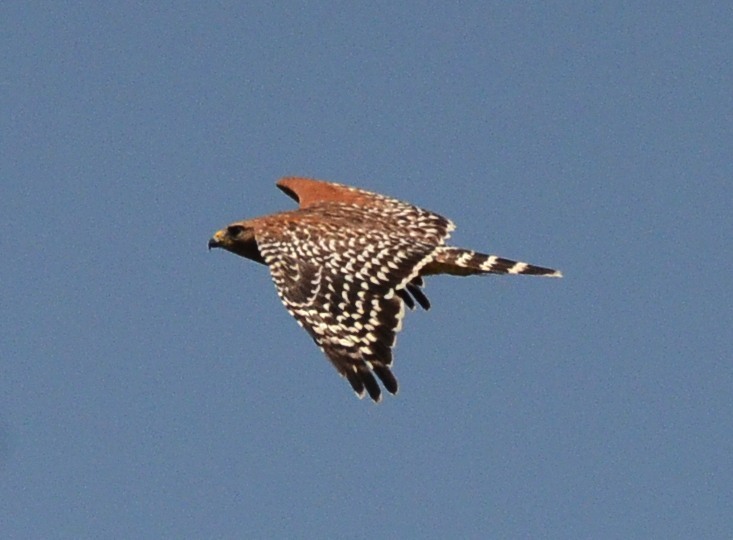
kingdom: Animalia
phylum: Chordata
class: Aves
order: Accipitriformes
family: Accipitridae
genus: Buteo
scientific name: Buteo lineatus
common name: Red-shouldered hawk
